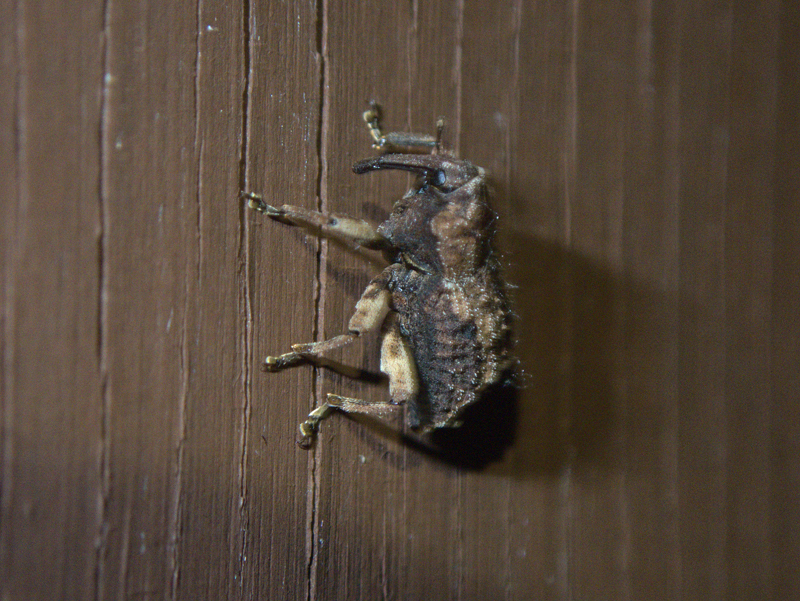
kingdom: Animalia
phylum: Arthropoda
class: Insecta
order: Coleoptera
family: Curculionidae
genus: Ectopsis
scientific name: Ectopsis ferrugalis
